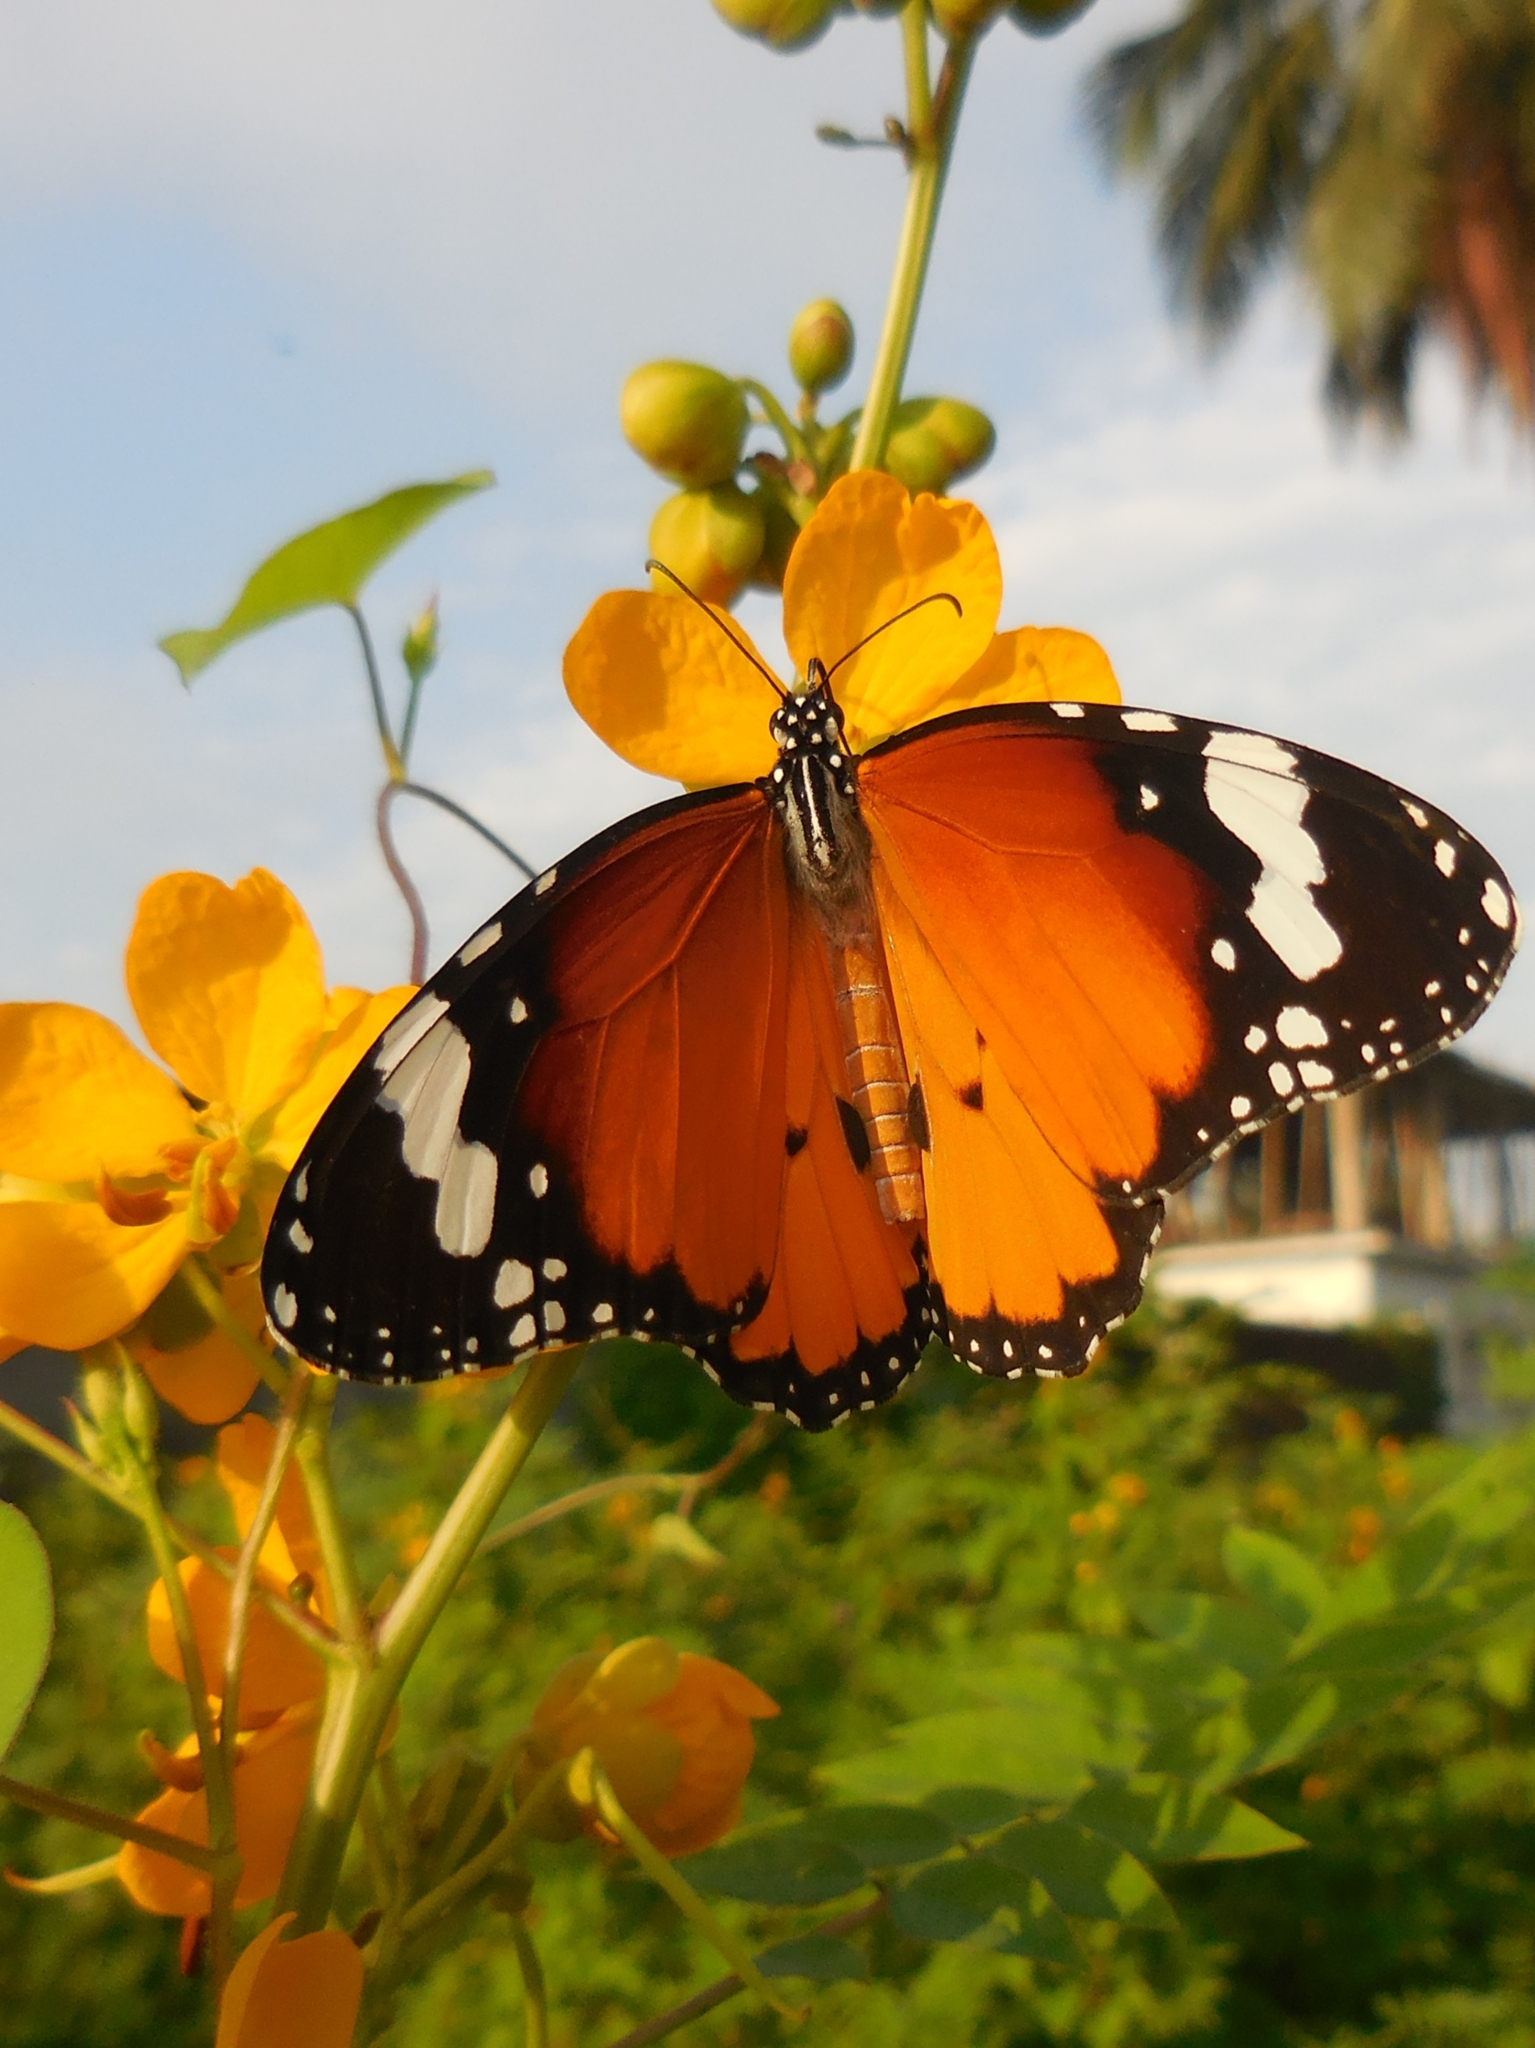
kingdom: Animalia
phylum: Arthropoda
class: Insecta
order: Lepidoptera
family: Nymphalidae
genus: Danaus
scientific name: Danaus chrysippus
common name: Plain tiger
